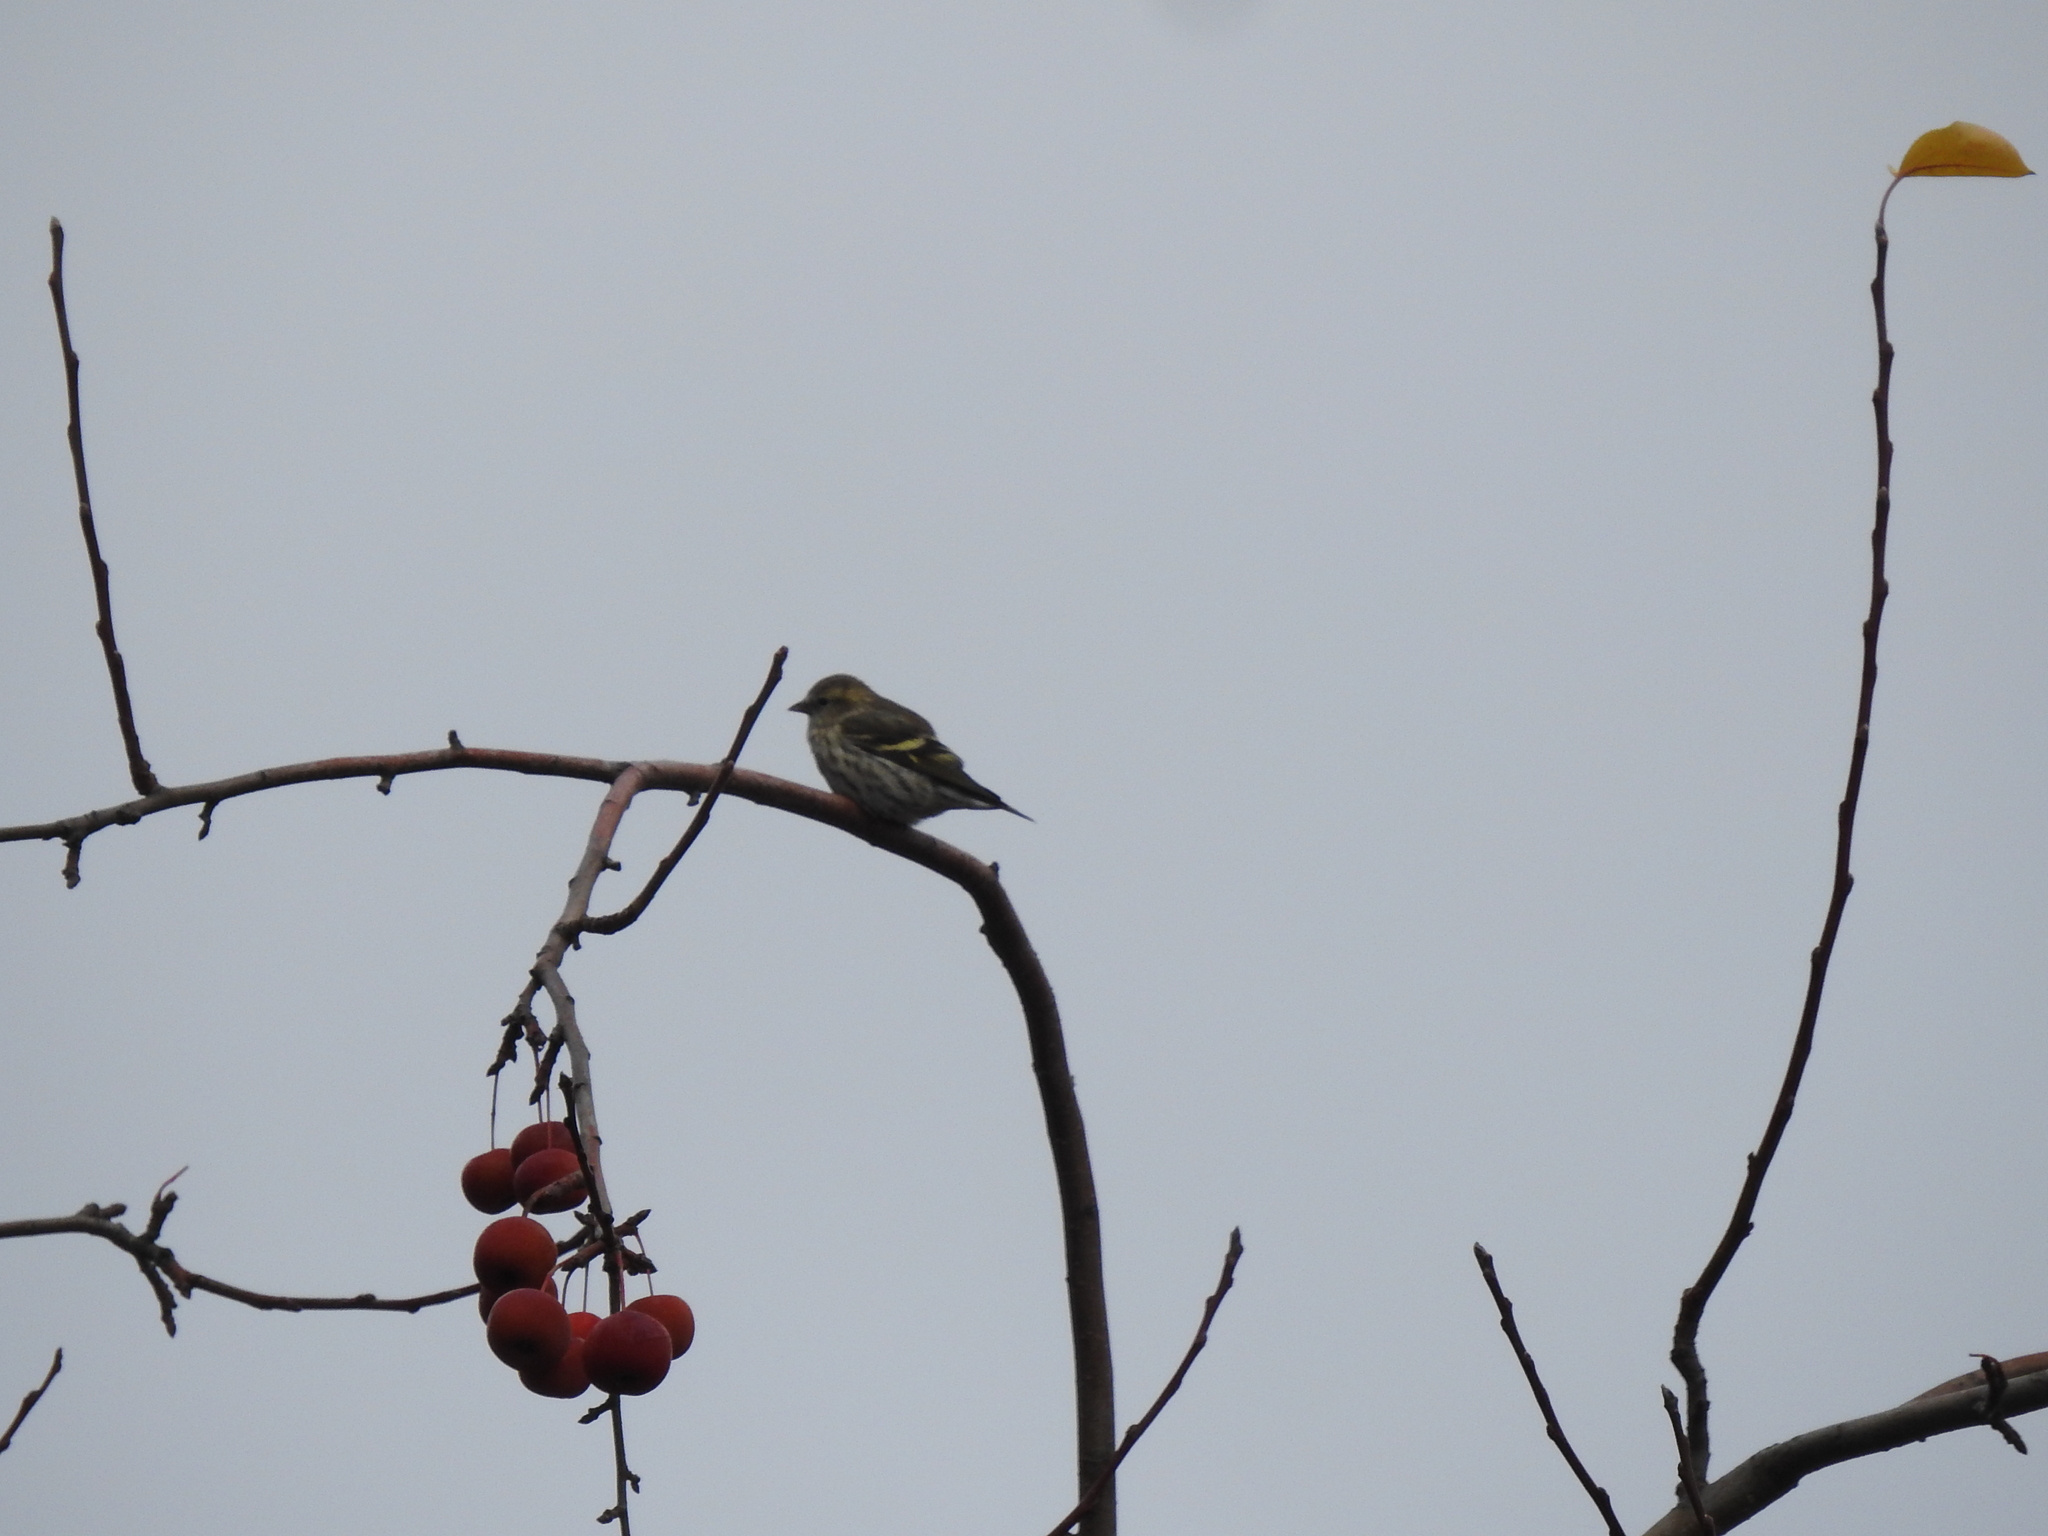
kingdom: Animalia
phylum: Chordata
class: Aves
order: Passeriformes
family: Fringillidae
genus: Spinus
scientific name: Spinus spinus
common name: Eurasian siskin
